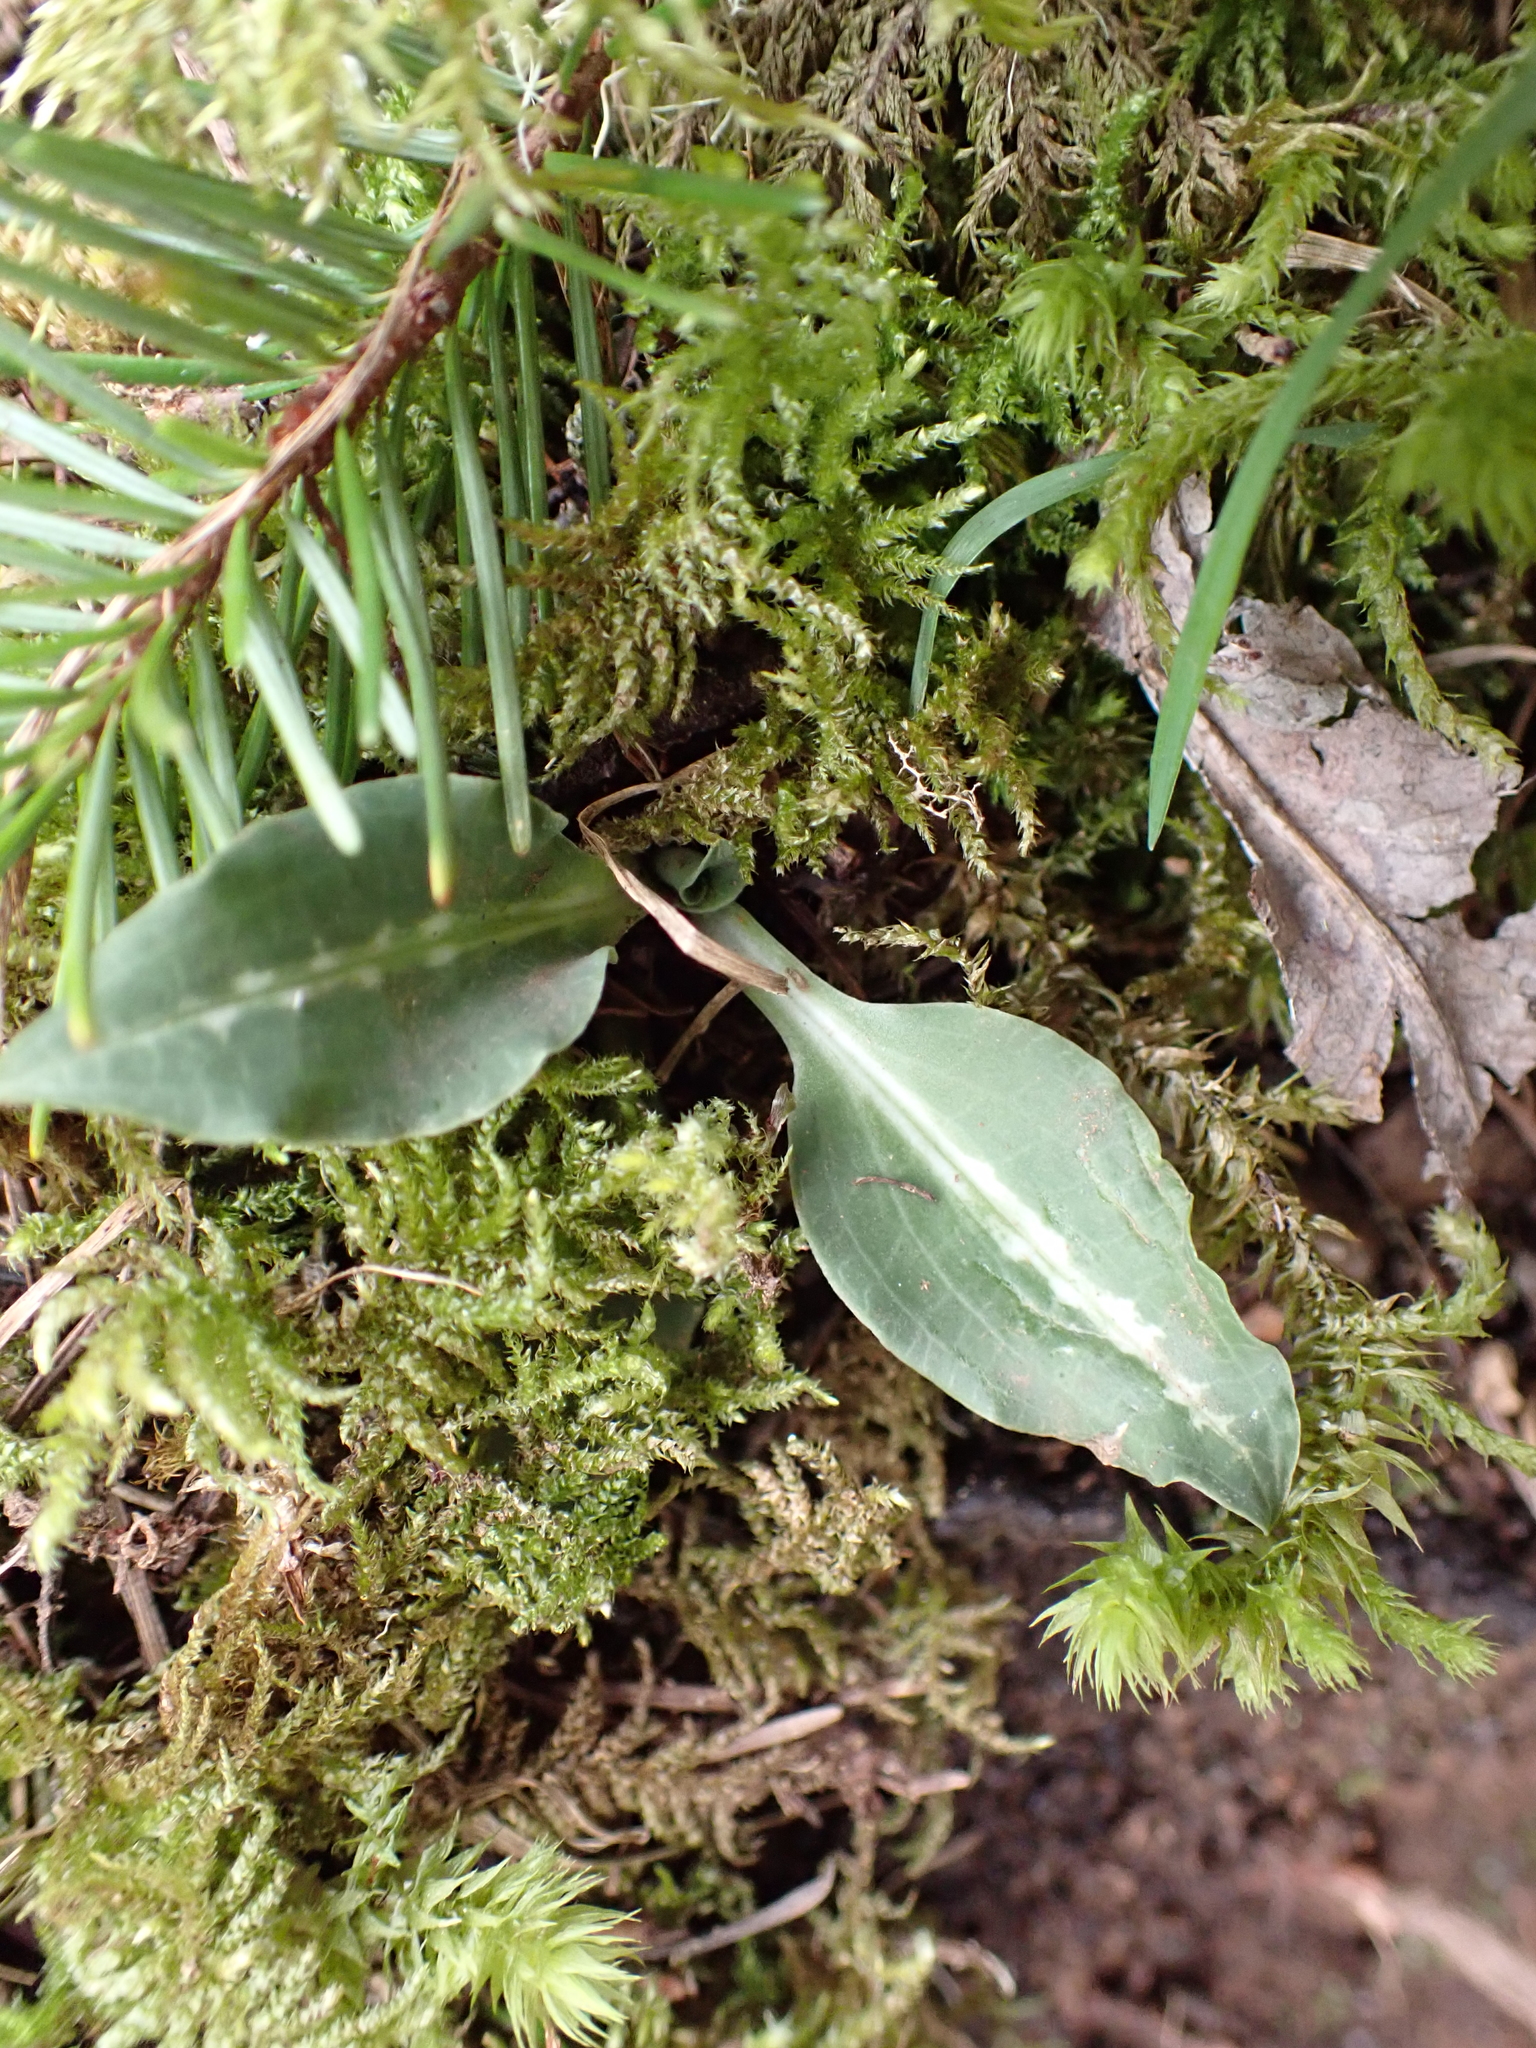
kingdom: Plantae
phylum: Tracheophyta
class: Liliopsida
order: Asparagales
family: Orchidaceae
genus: Goodyera
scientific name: Goodyera oblongifolia
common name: Giant rattlesnake-plantain
